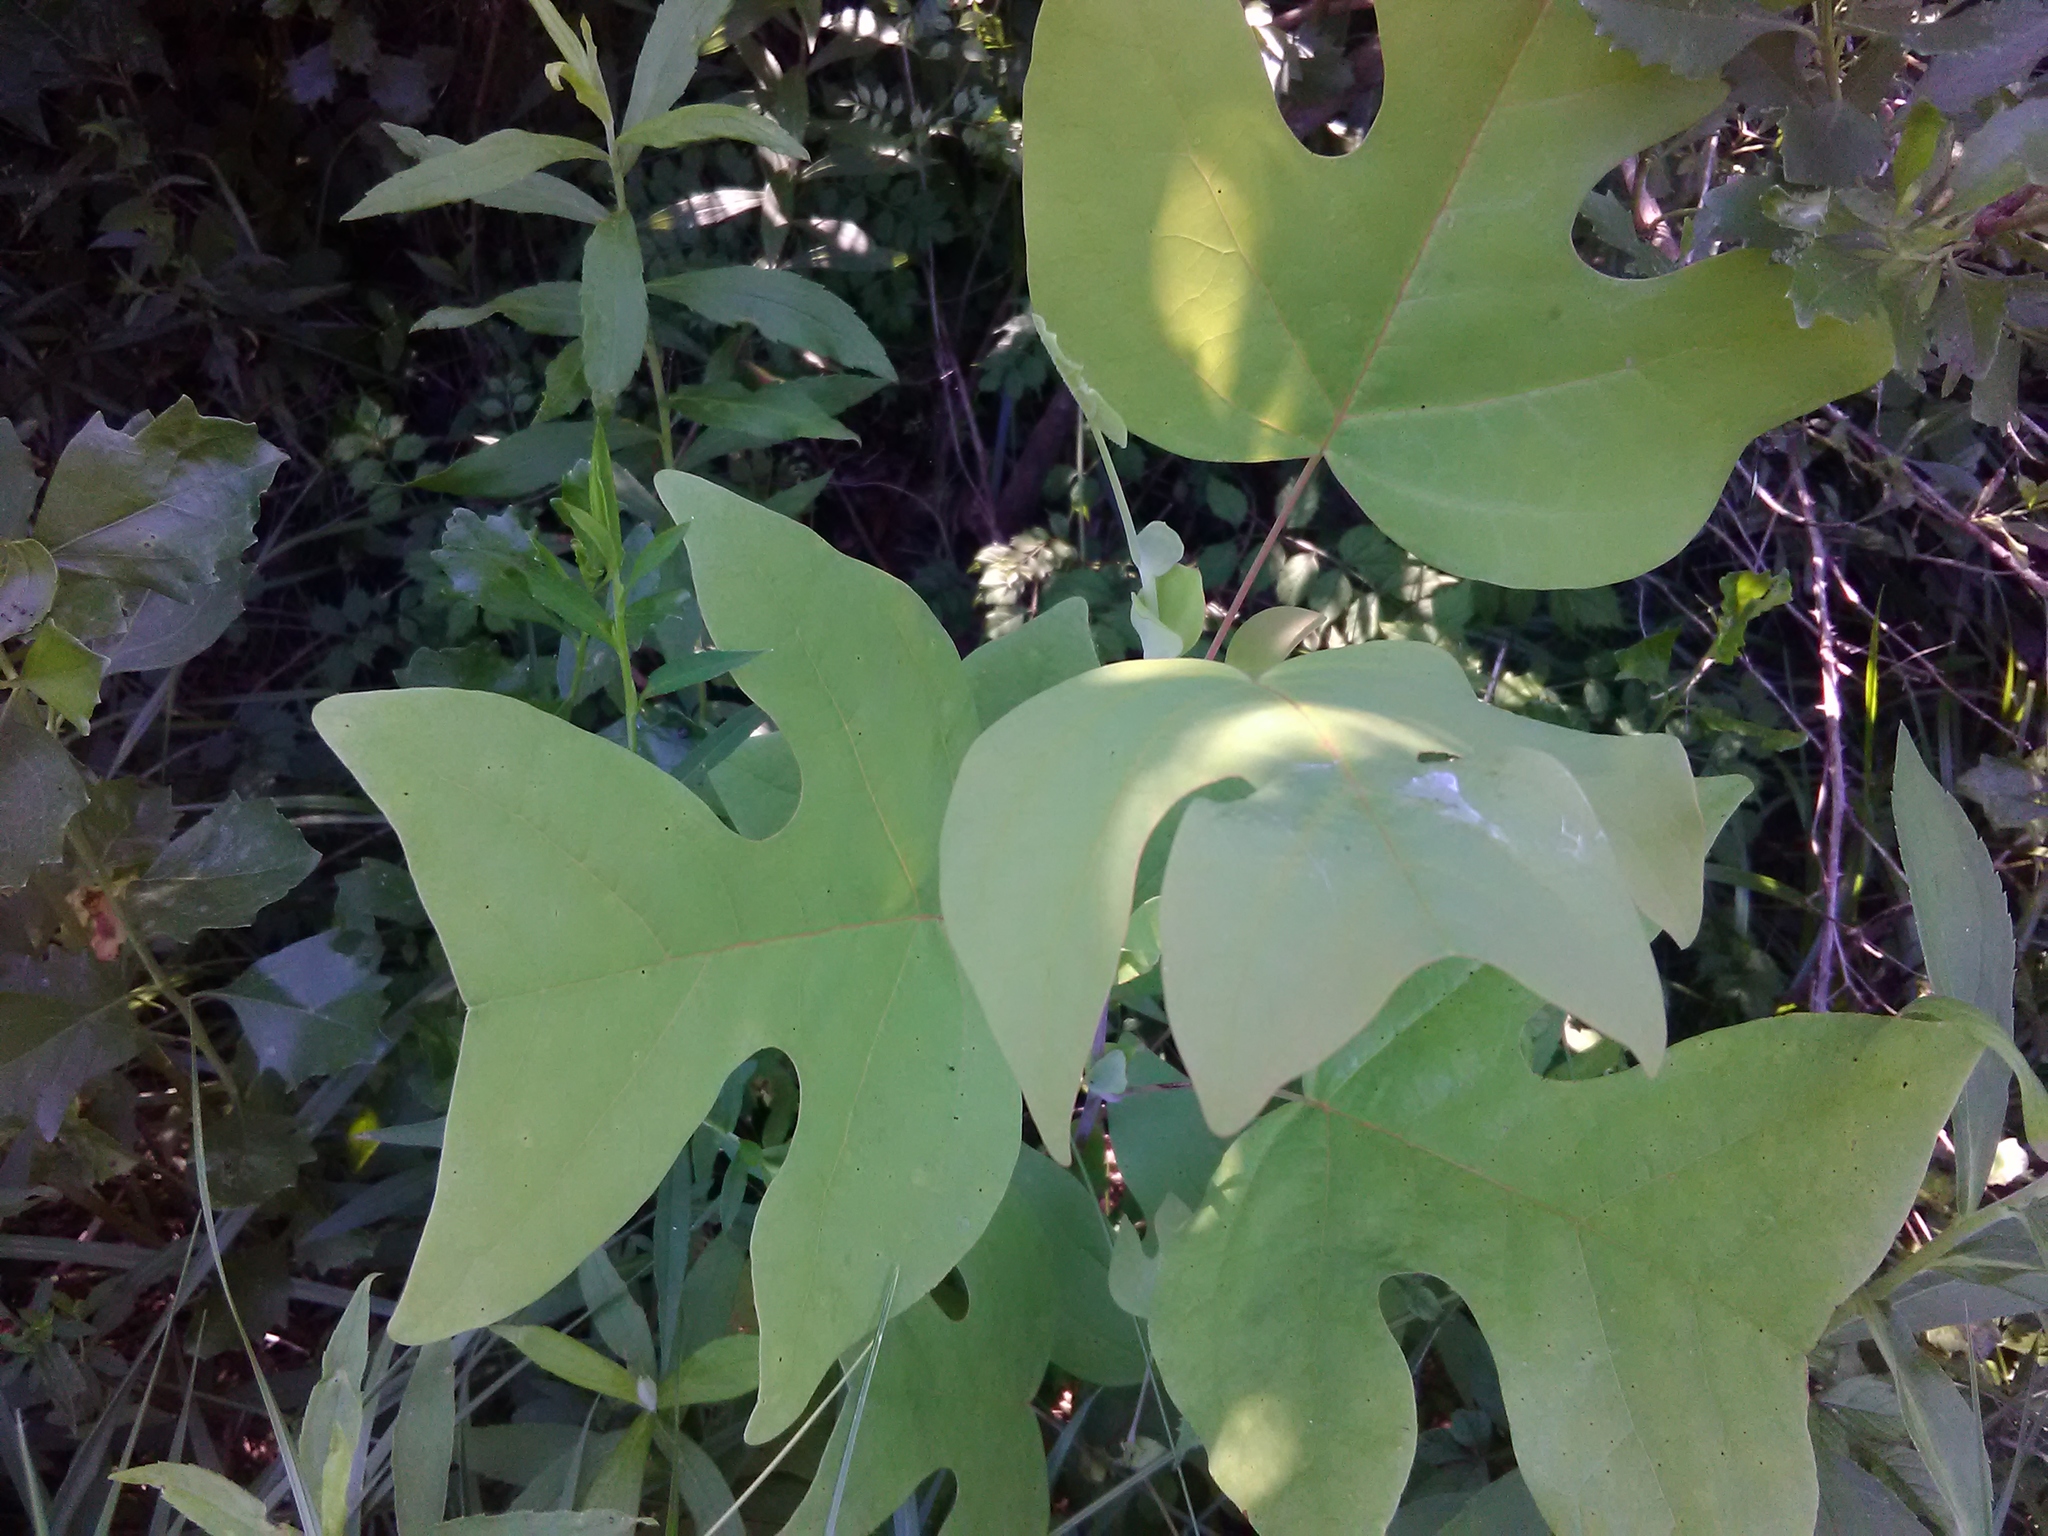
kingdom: Plantae
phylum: Tracheophyta
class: Magnoliopsida
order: Magnoliales
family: Magnoliaceae
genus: Liriodendron
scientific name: Liriodendron tulipifera
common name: Tulip tree
